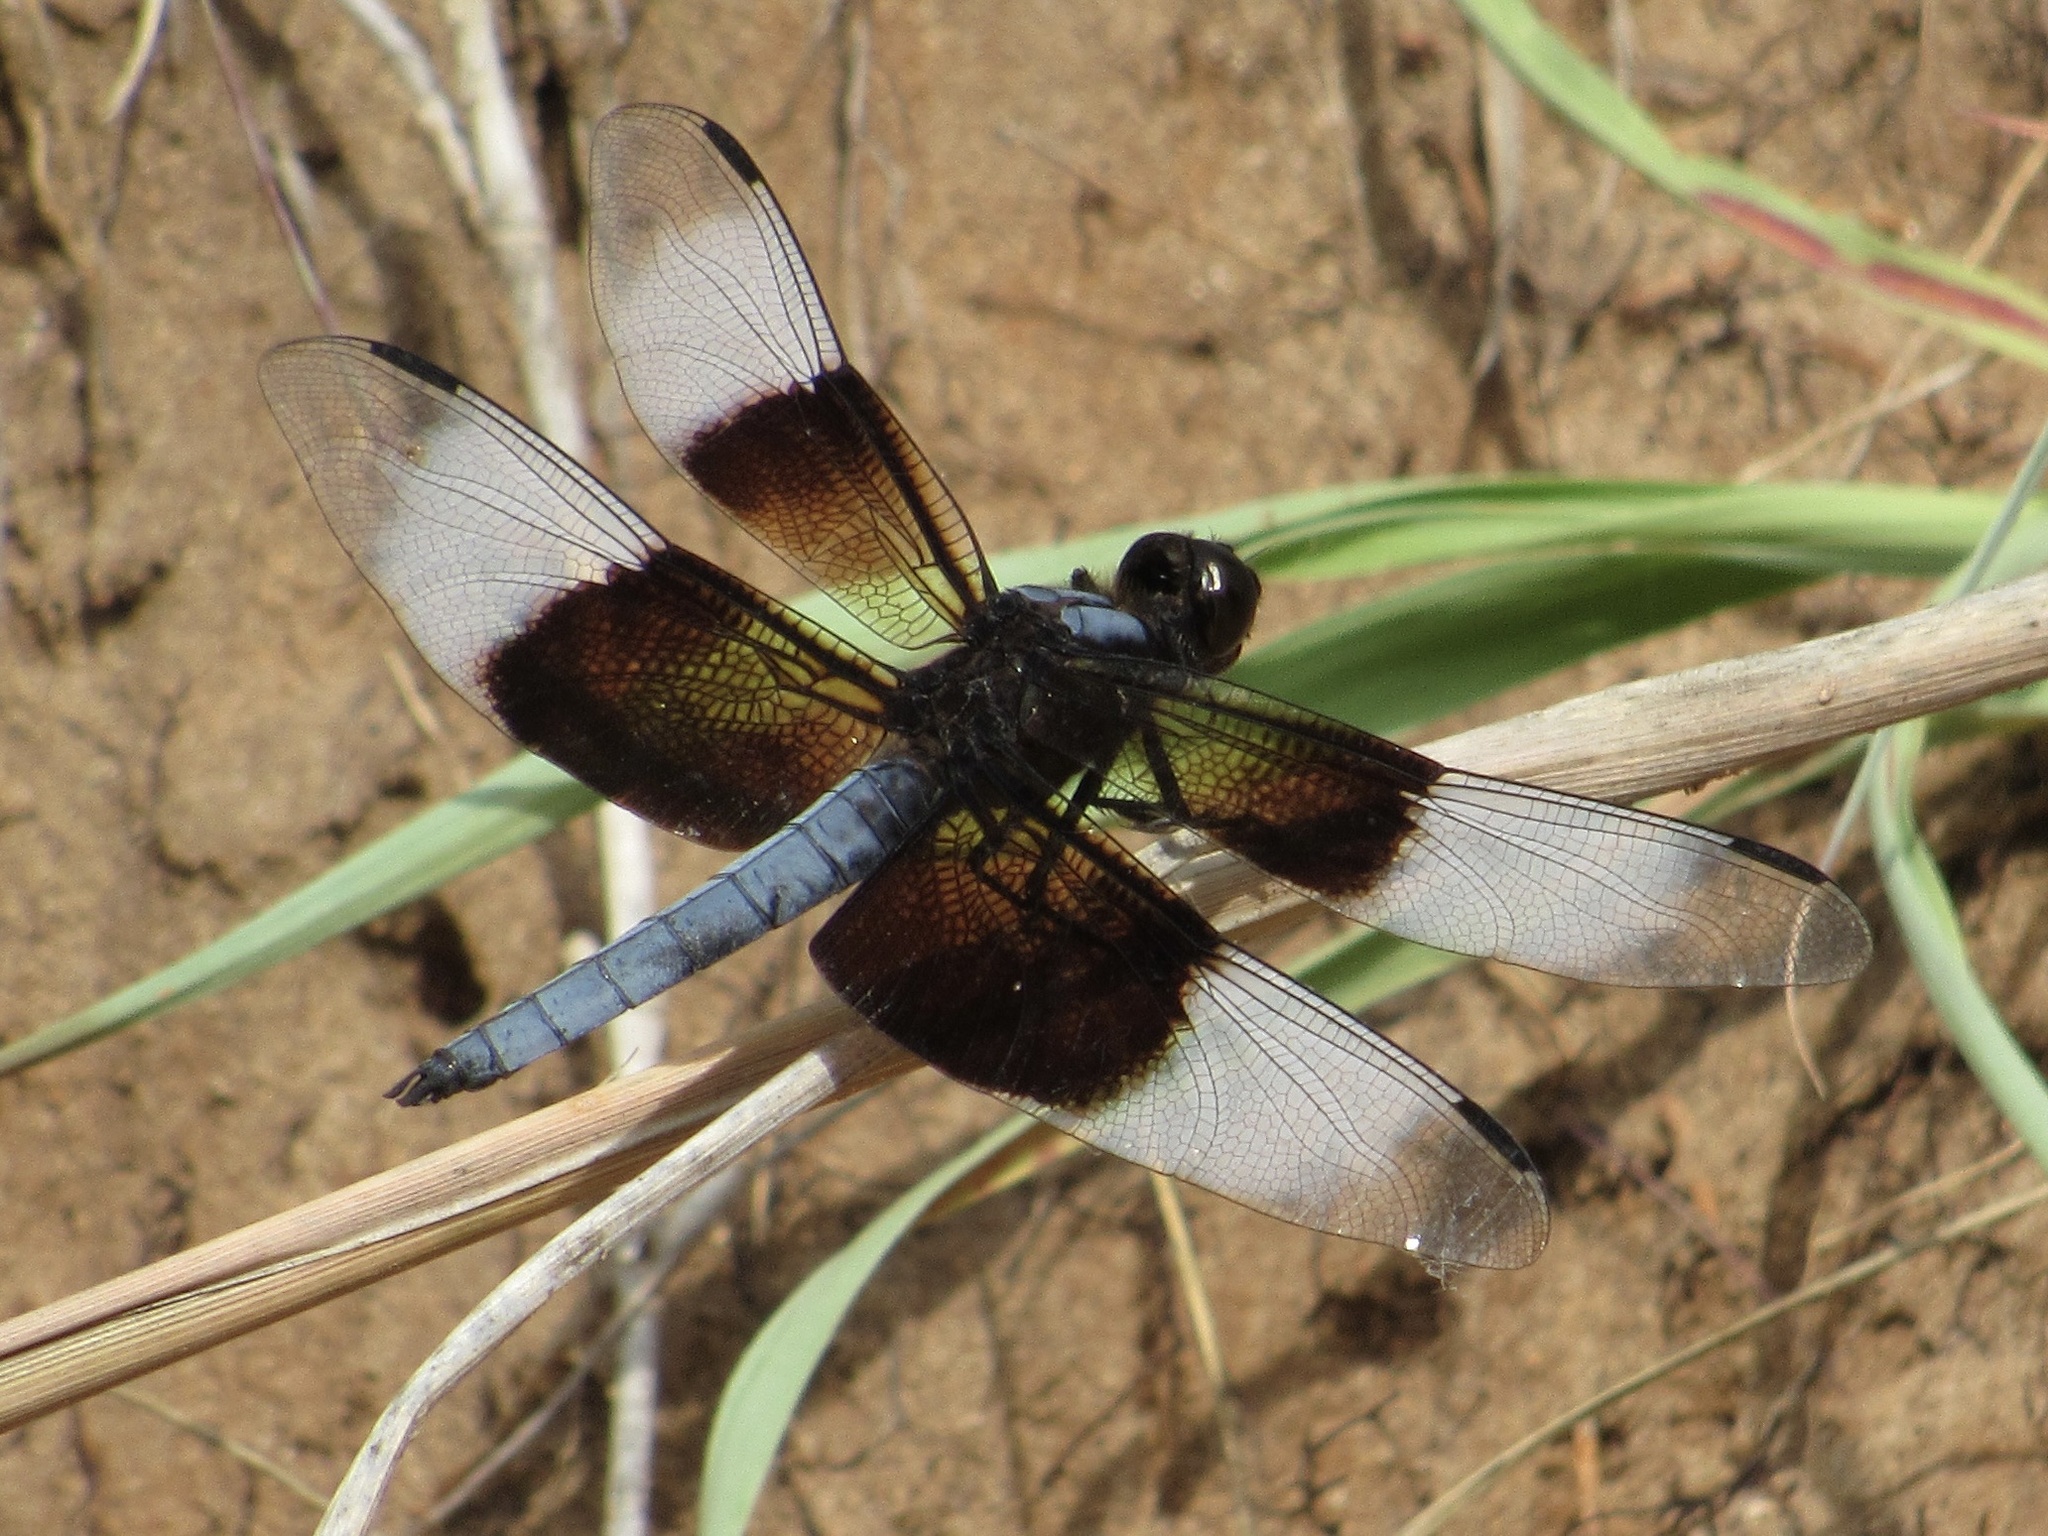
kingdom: Animalia
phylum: Arthropoda
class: Insecta
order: Odonata
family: Libellulidae
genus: Libellula
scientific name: Libellula luctuosa
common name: Widow skimmer
